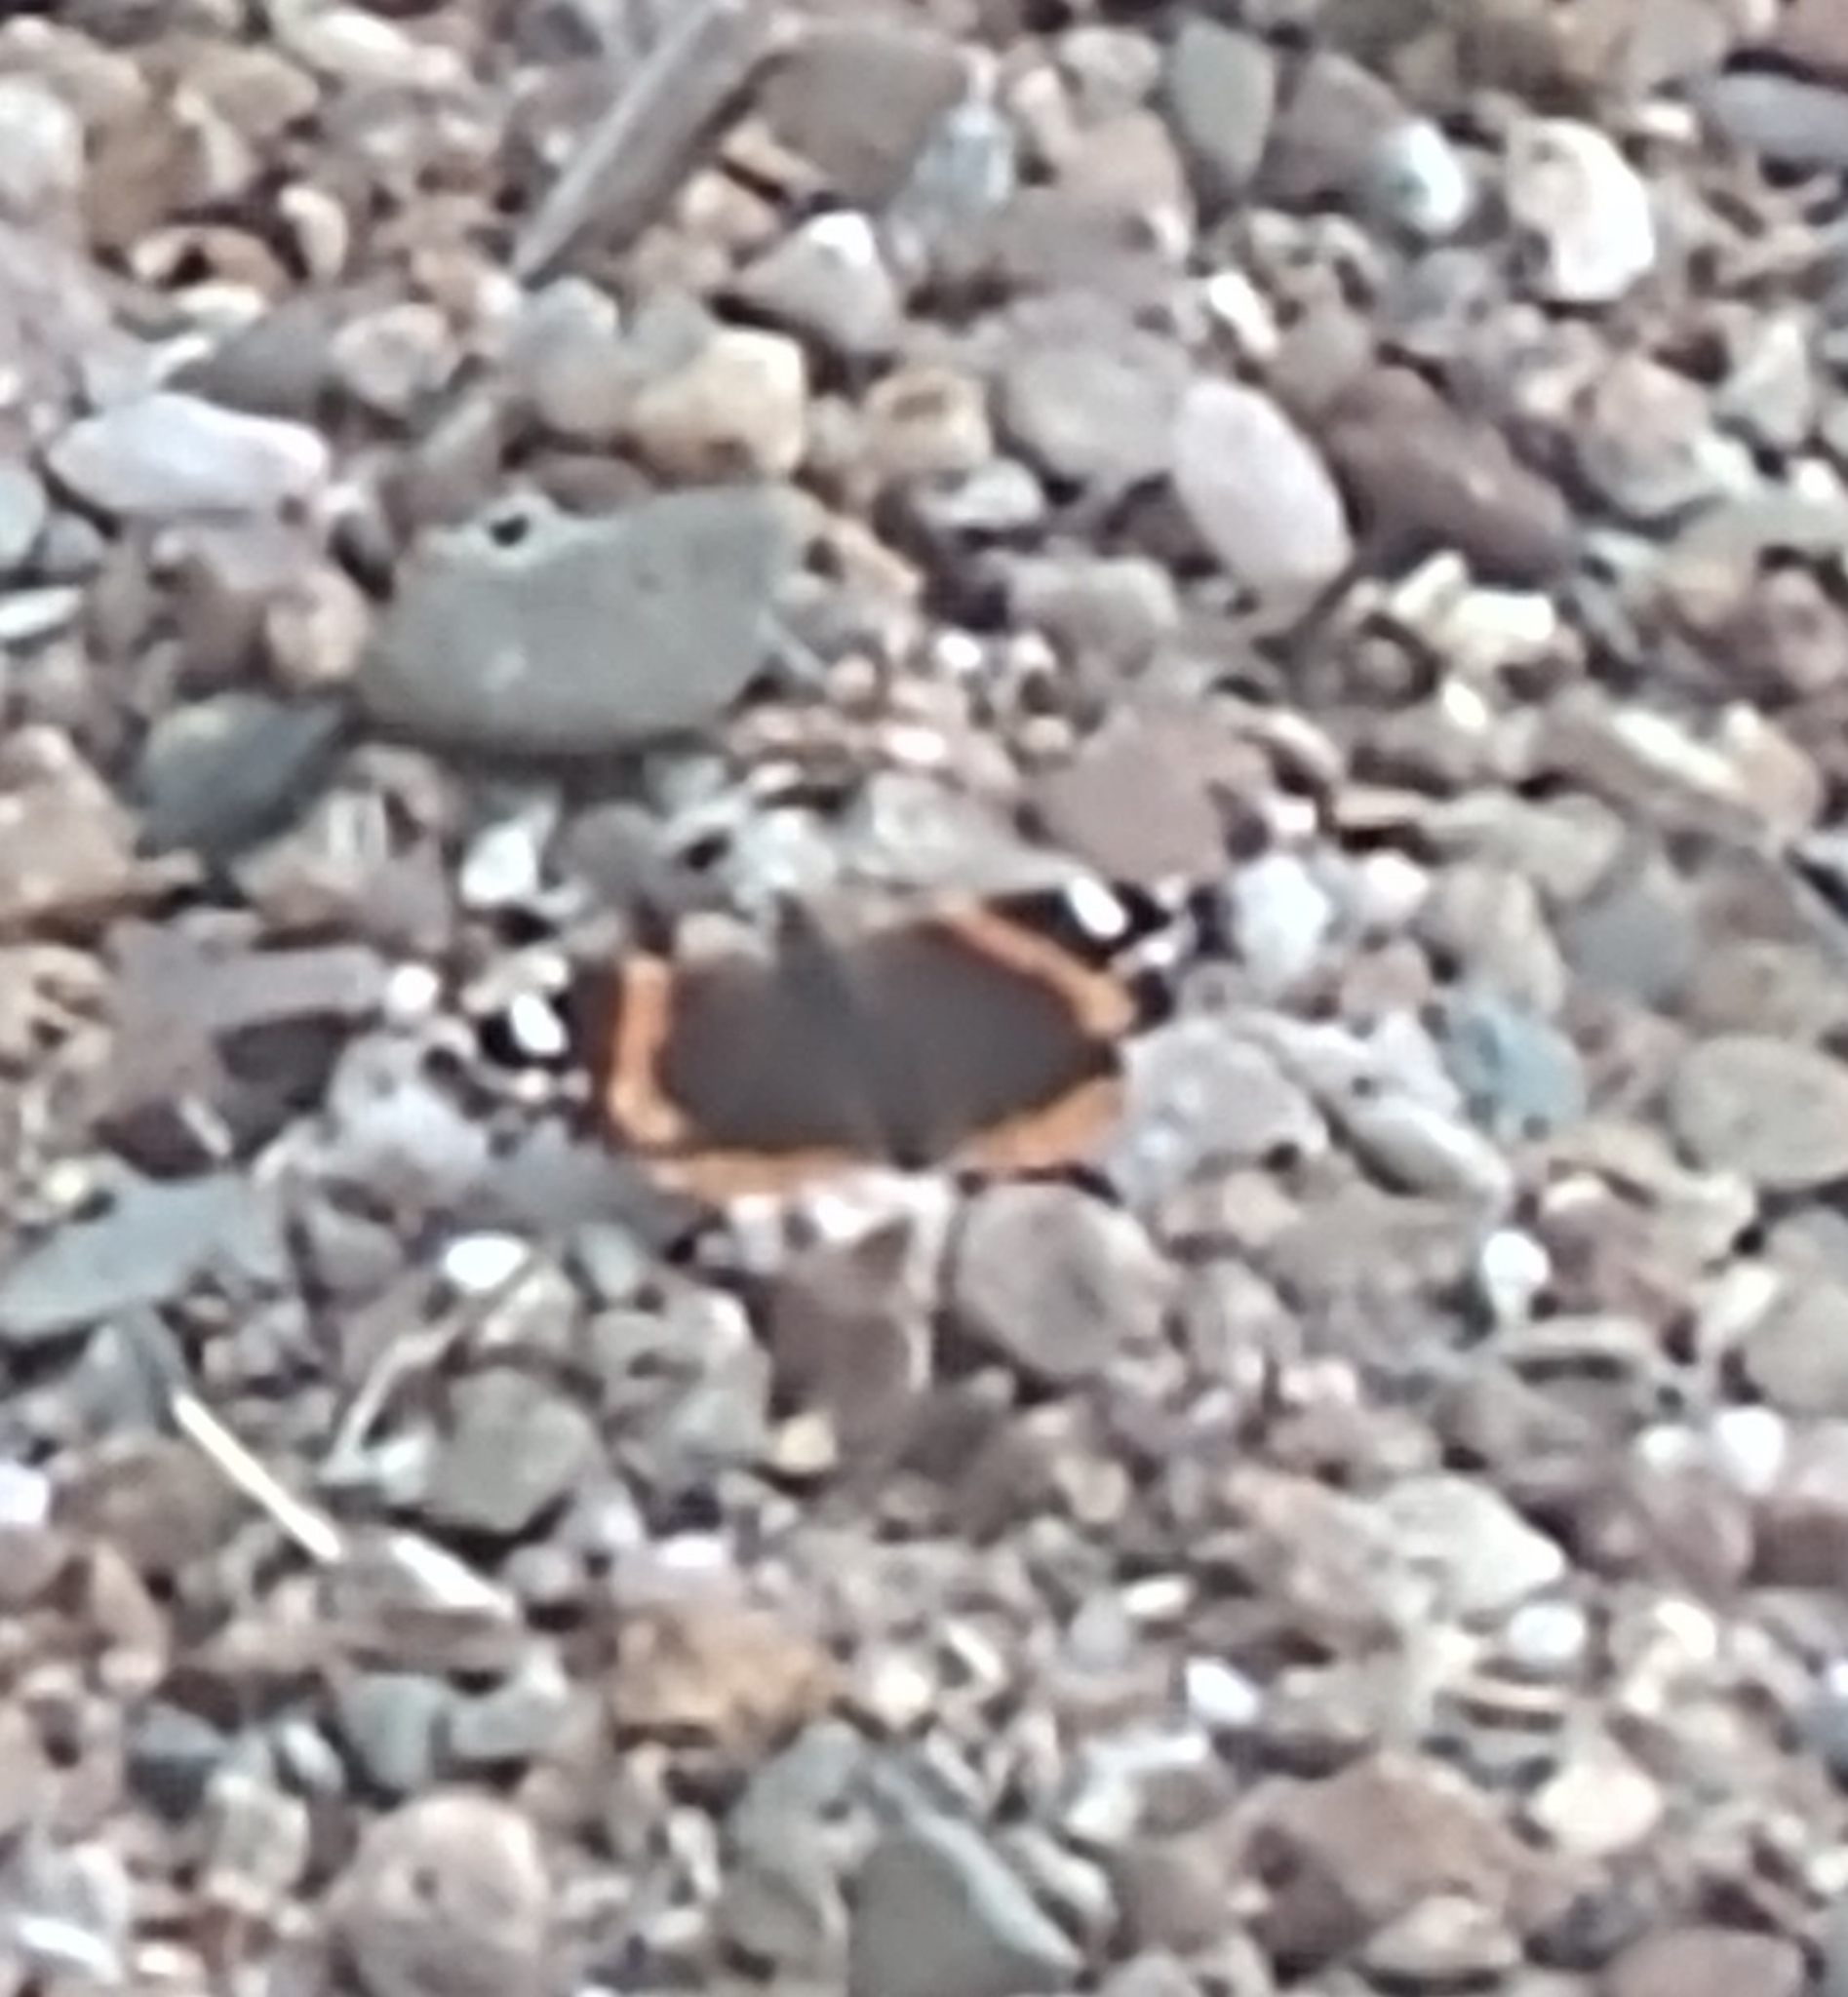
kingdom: Animalia
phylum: Arthropoda
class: Insecta
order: Lepidoptera
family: Nymphalidae
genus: Vanessa
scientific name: Vanessa atalanta
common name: Red admiral
